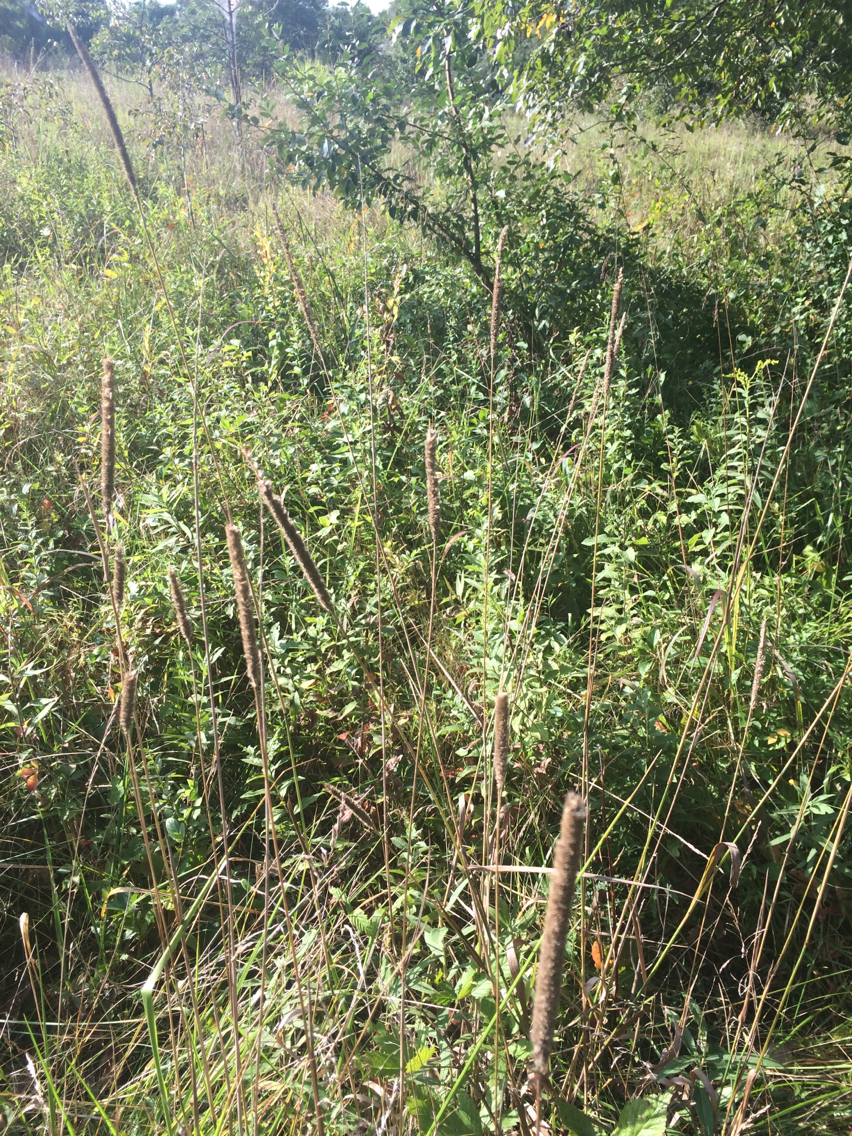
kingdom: Plantae
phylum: Tracheophyta
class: Liliopsida
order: Poales
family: Poaceae
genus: Phleum
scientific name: Phleum pratense
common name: Timothy grass
